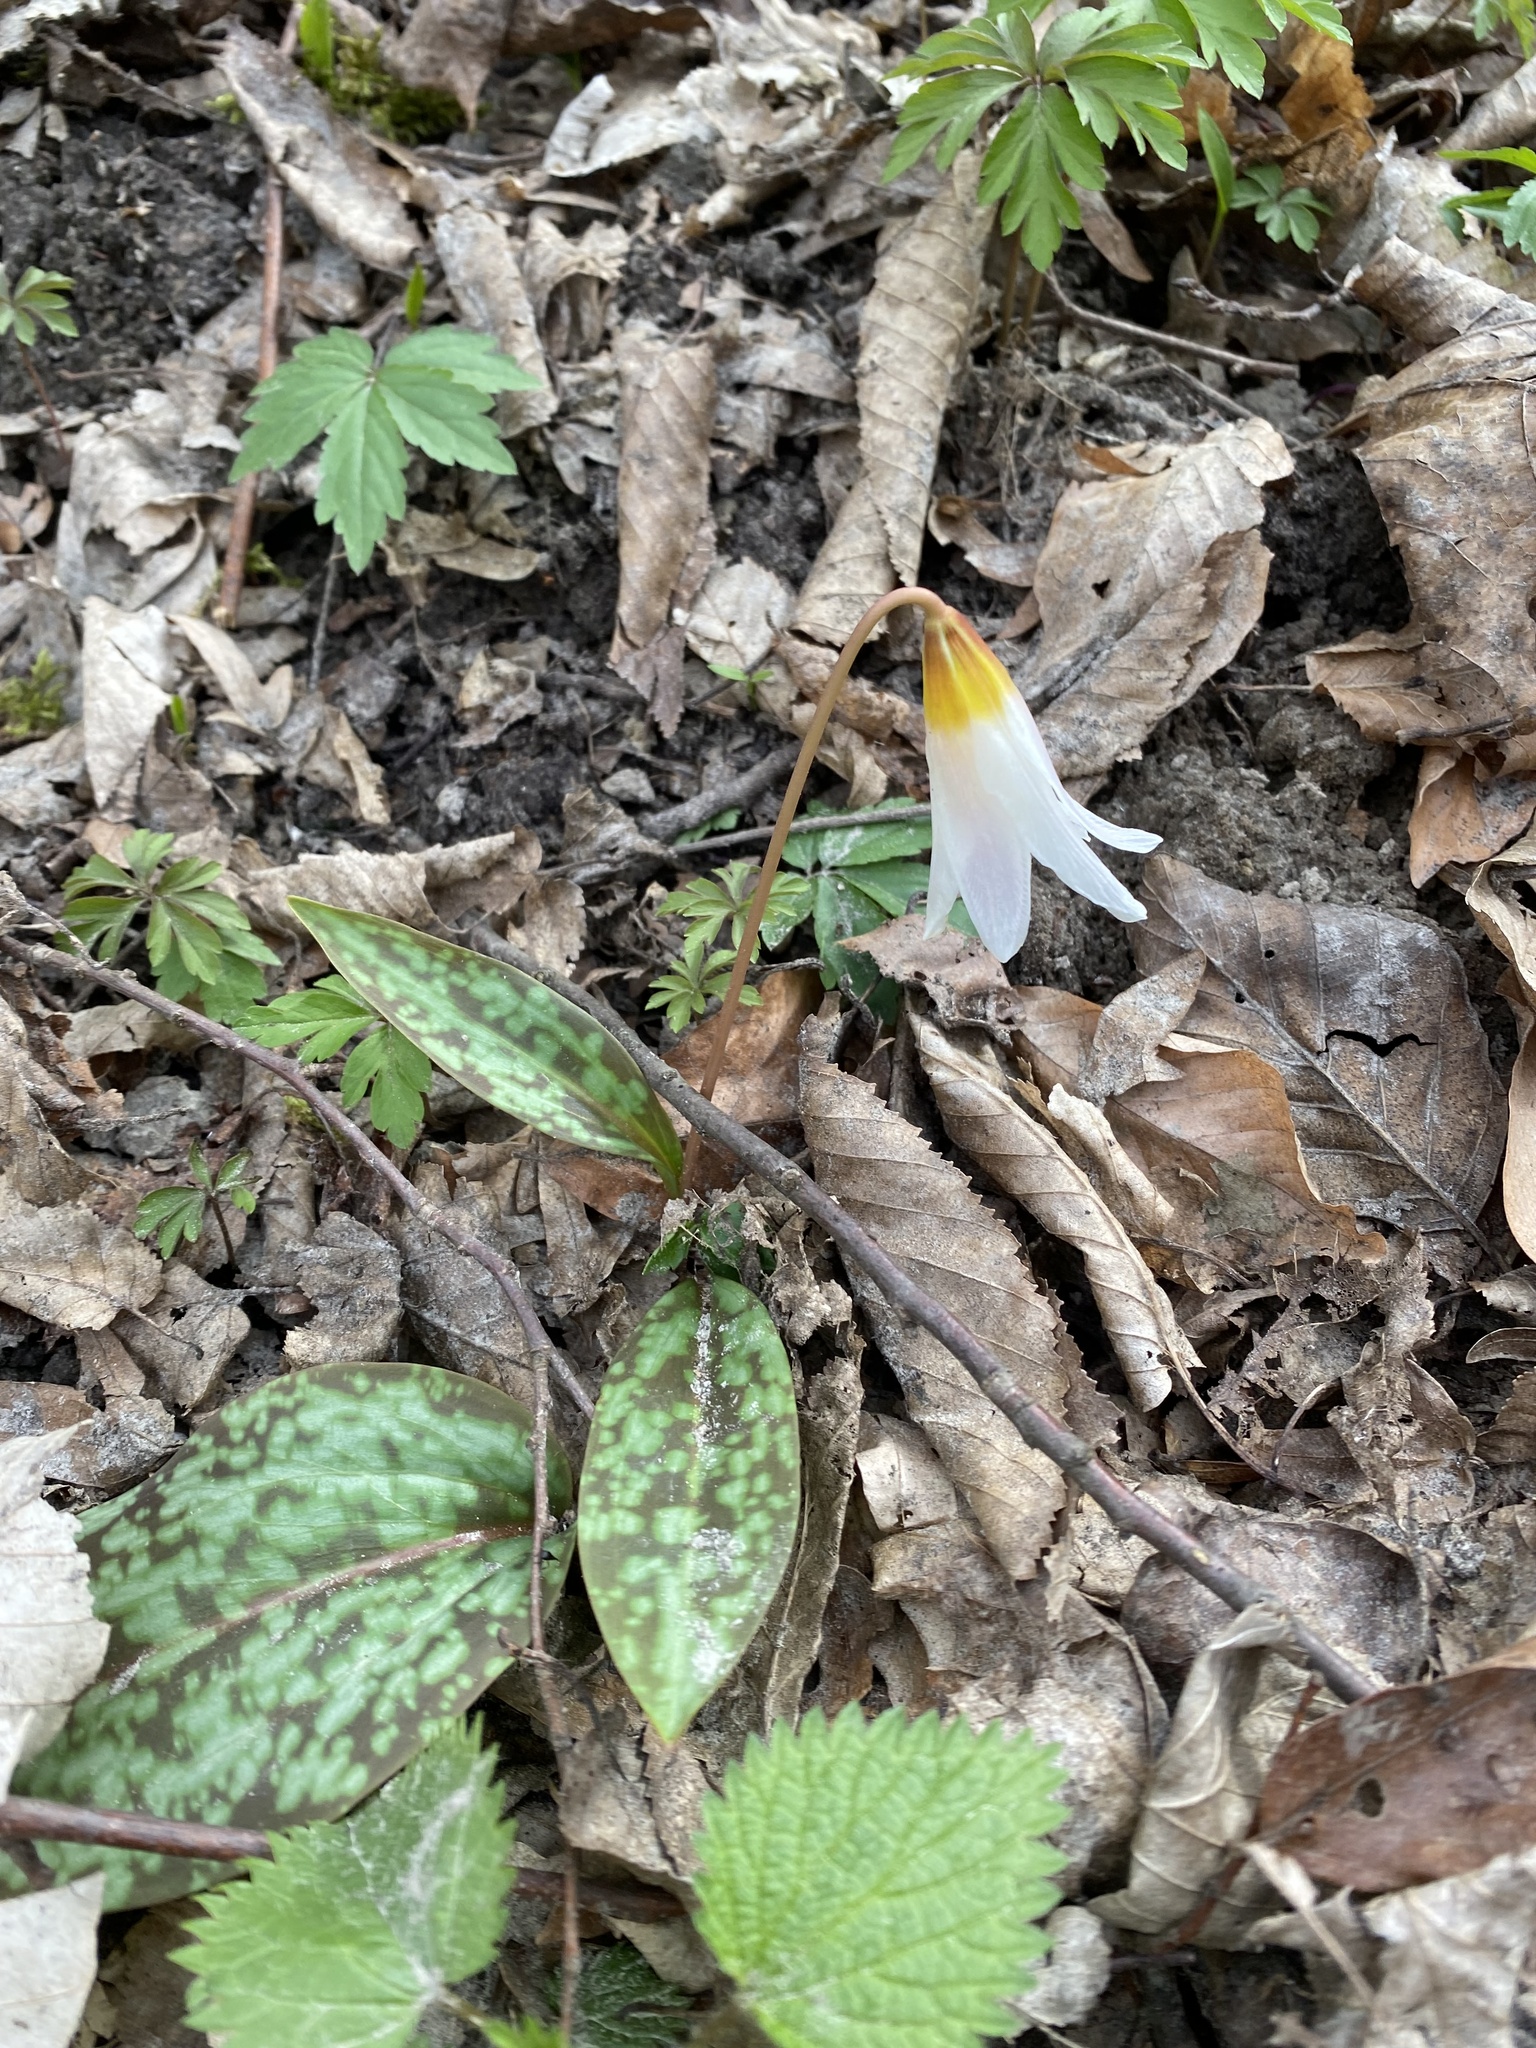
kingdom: Plantae
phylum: Tracheophyta
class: Liliopsida
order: Liliales
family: Liliaceae
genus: Erythronium
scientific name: Erythronium caucasicum
